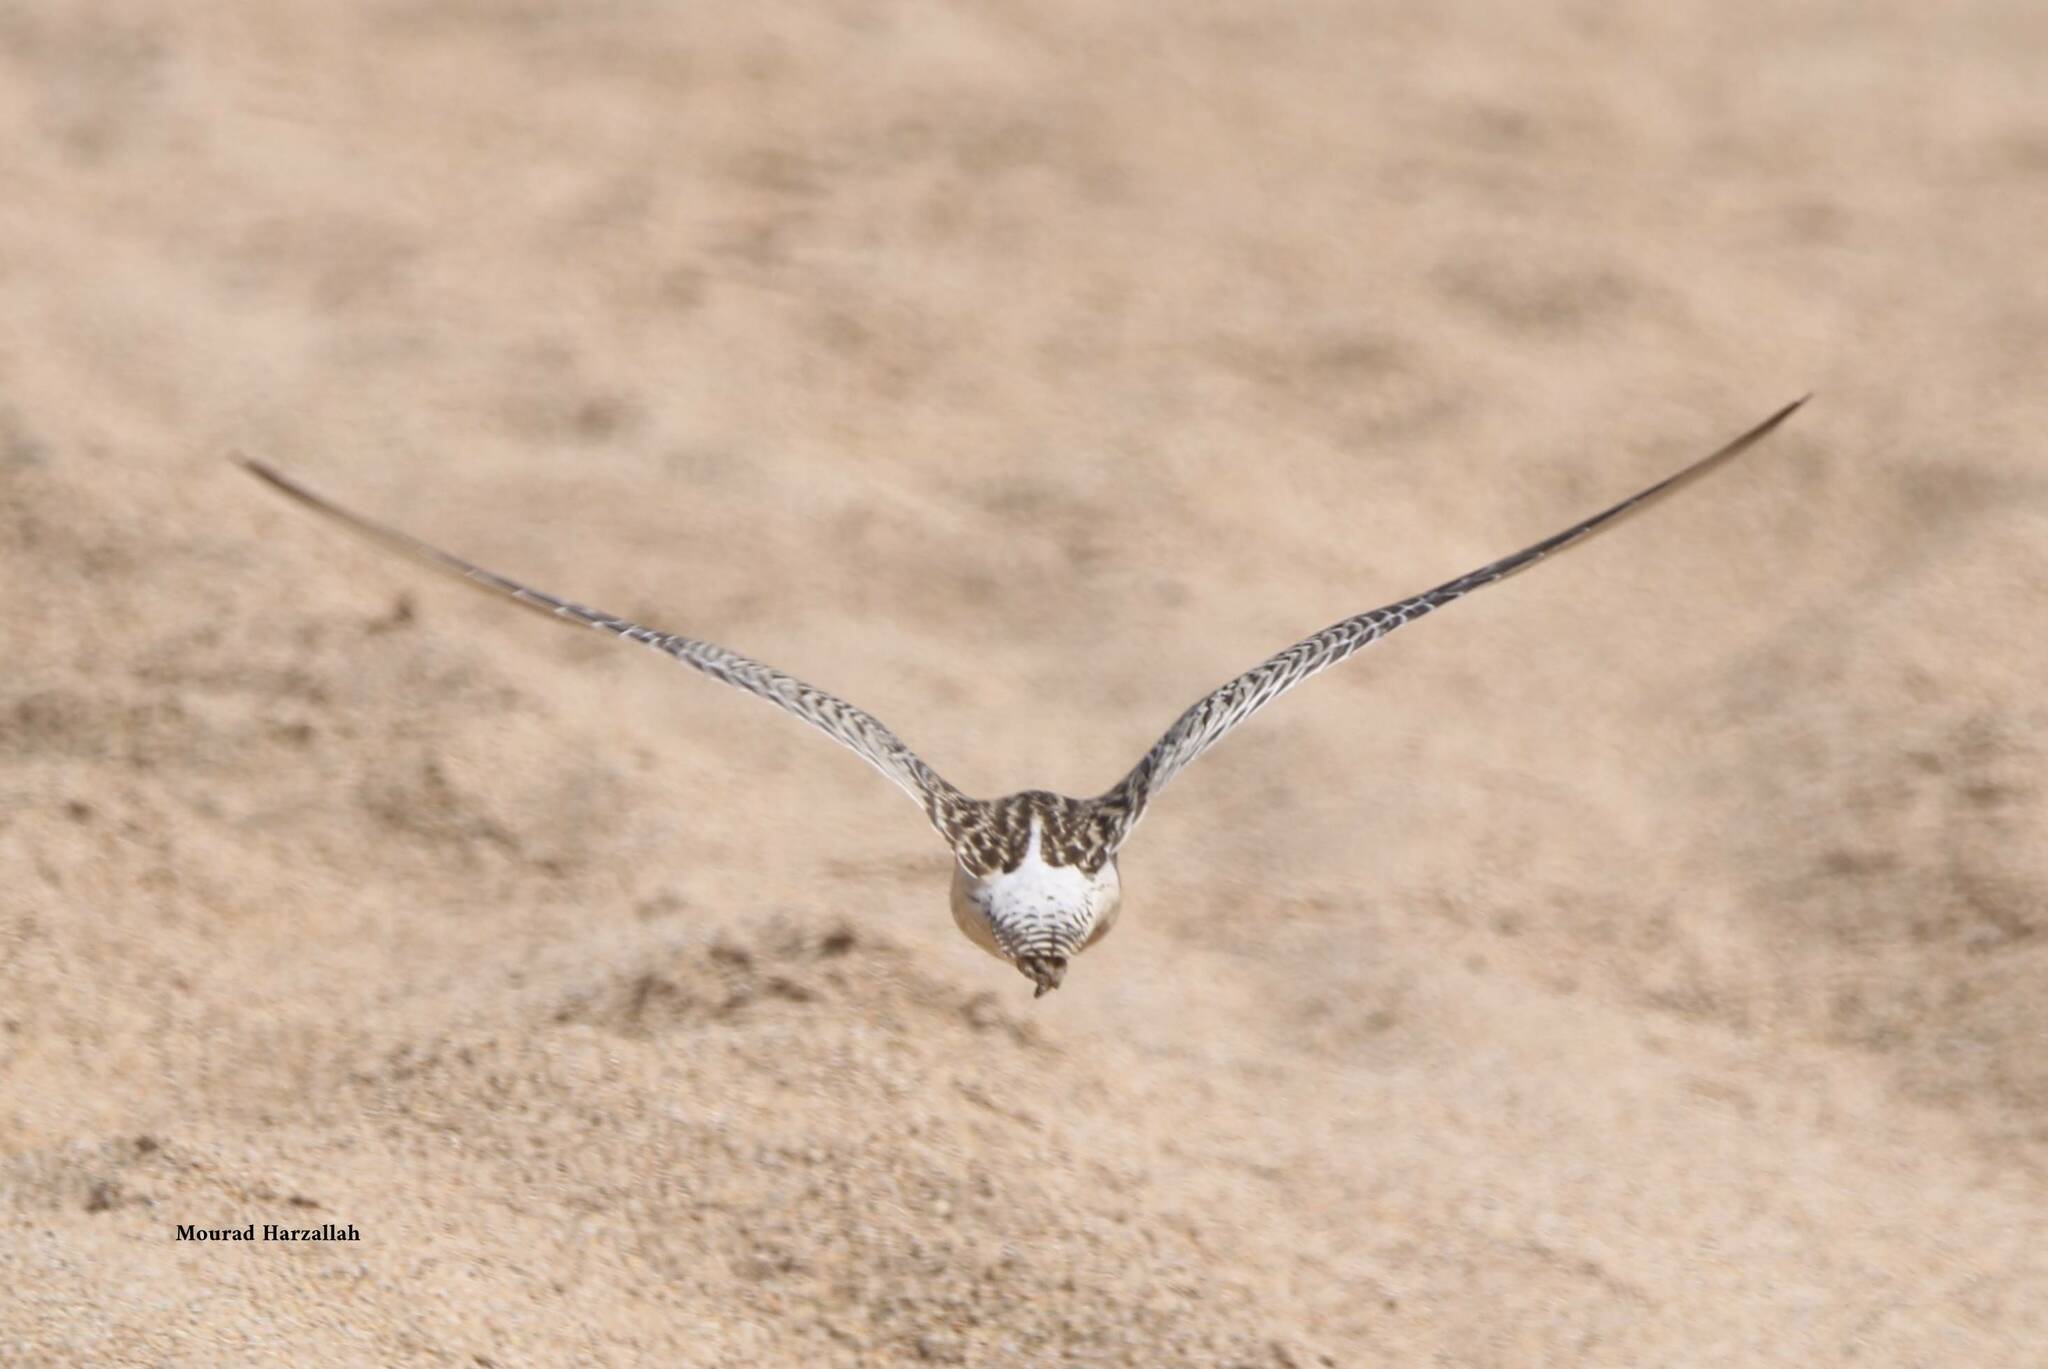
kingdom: Animalia
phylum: Chordata
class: Aves
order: Charadriiformes
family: Scolopacidae
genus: Limosa
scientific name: Limosa lapponica
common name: Bar-tailed godwit
